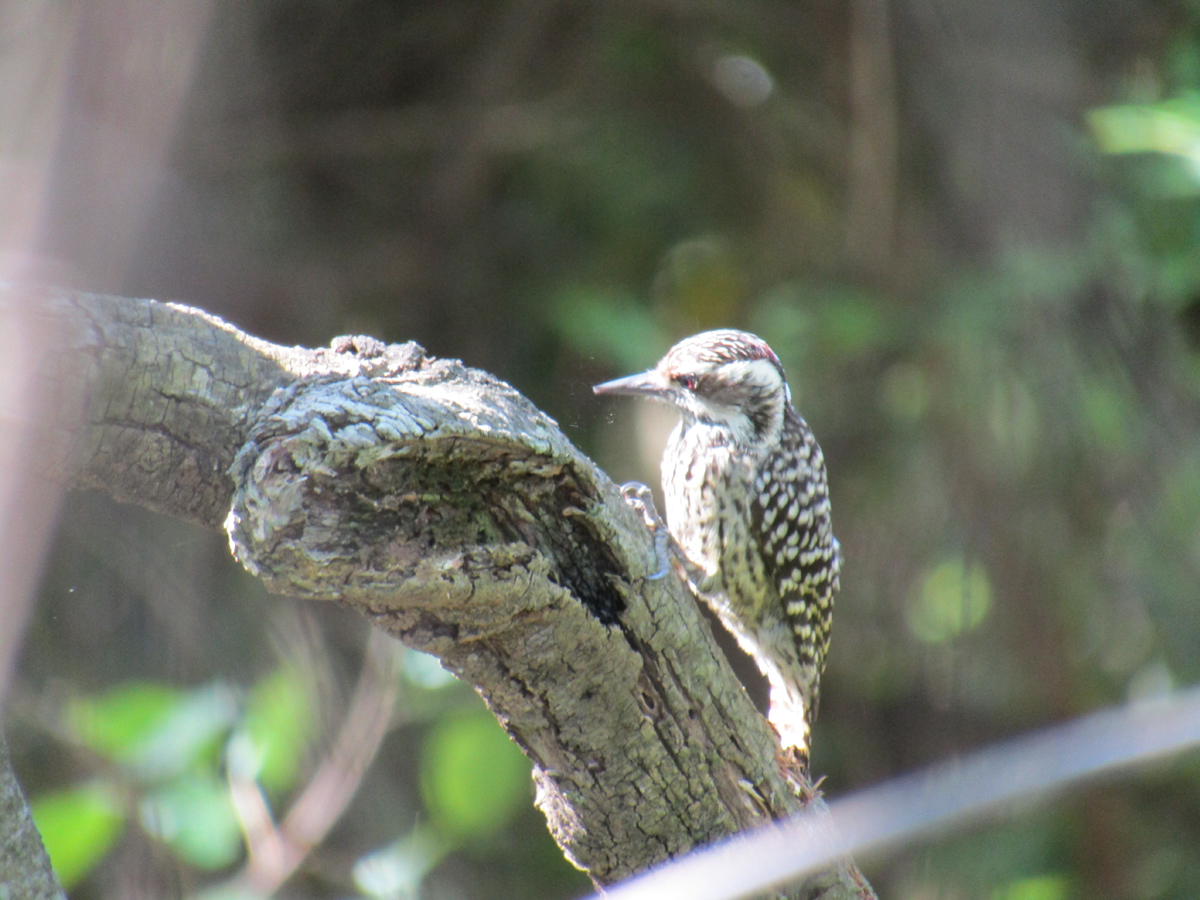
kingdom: Animalia
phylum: Chordata
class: Aves
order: Piciformes
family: Picidae
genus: Veniliornis
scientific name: Veniliornis mixtus
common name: Checkered woodpecker
